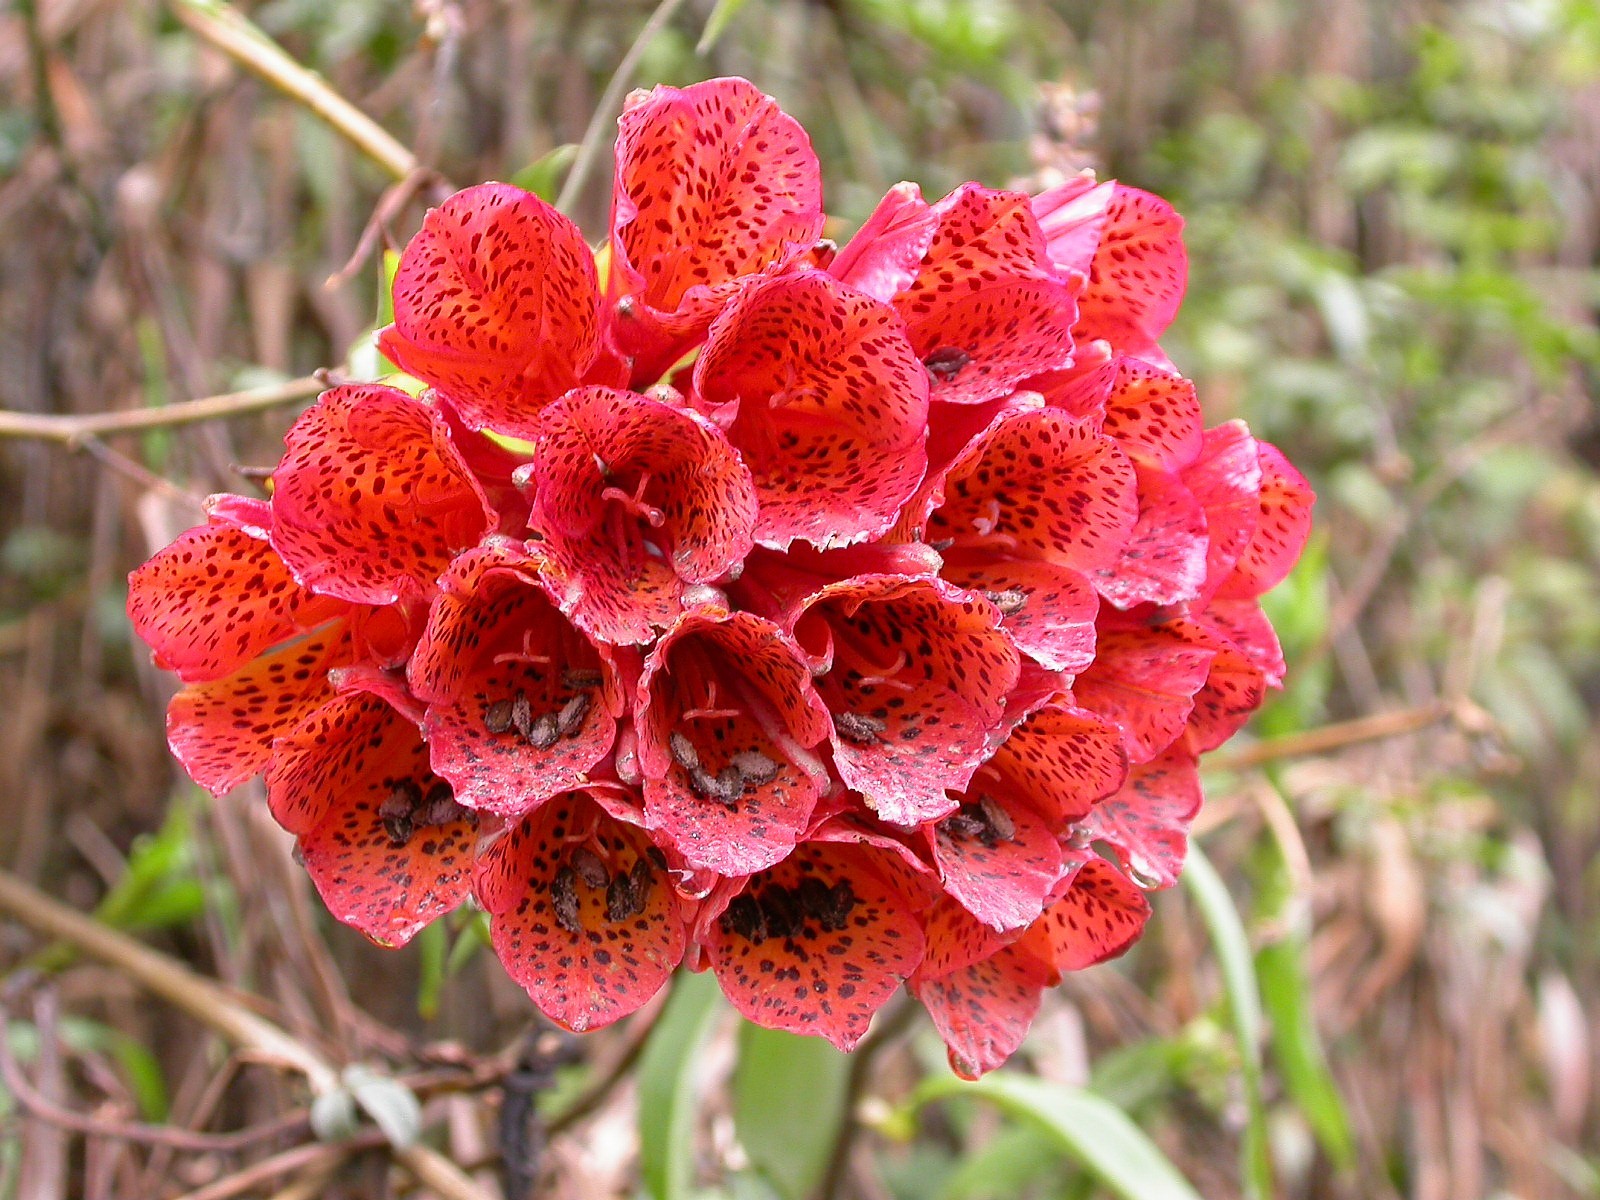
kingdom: Plantae
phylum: Tracheophyta
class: Liliopsida
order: Liliales
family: Alstroemeriaceae
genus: Bomarea
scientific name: Bomarea formosissima
